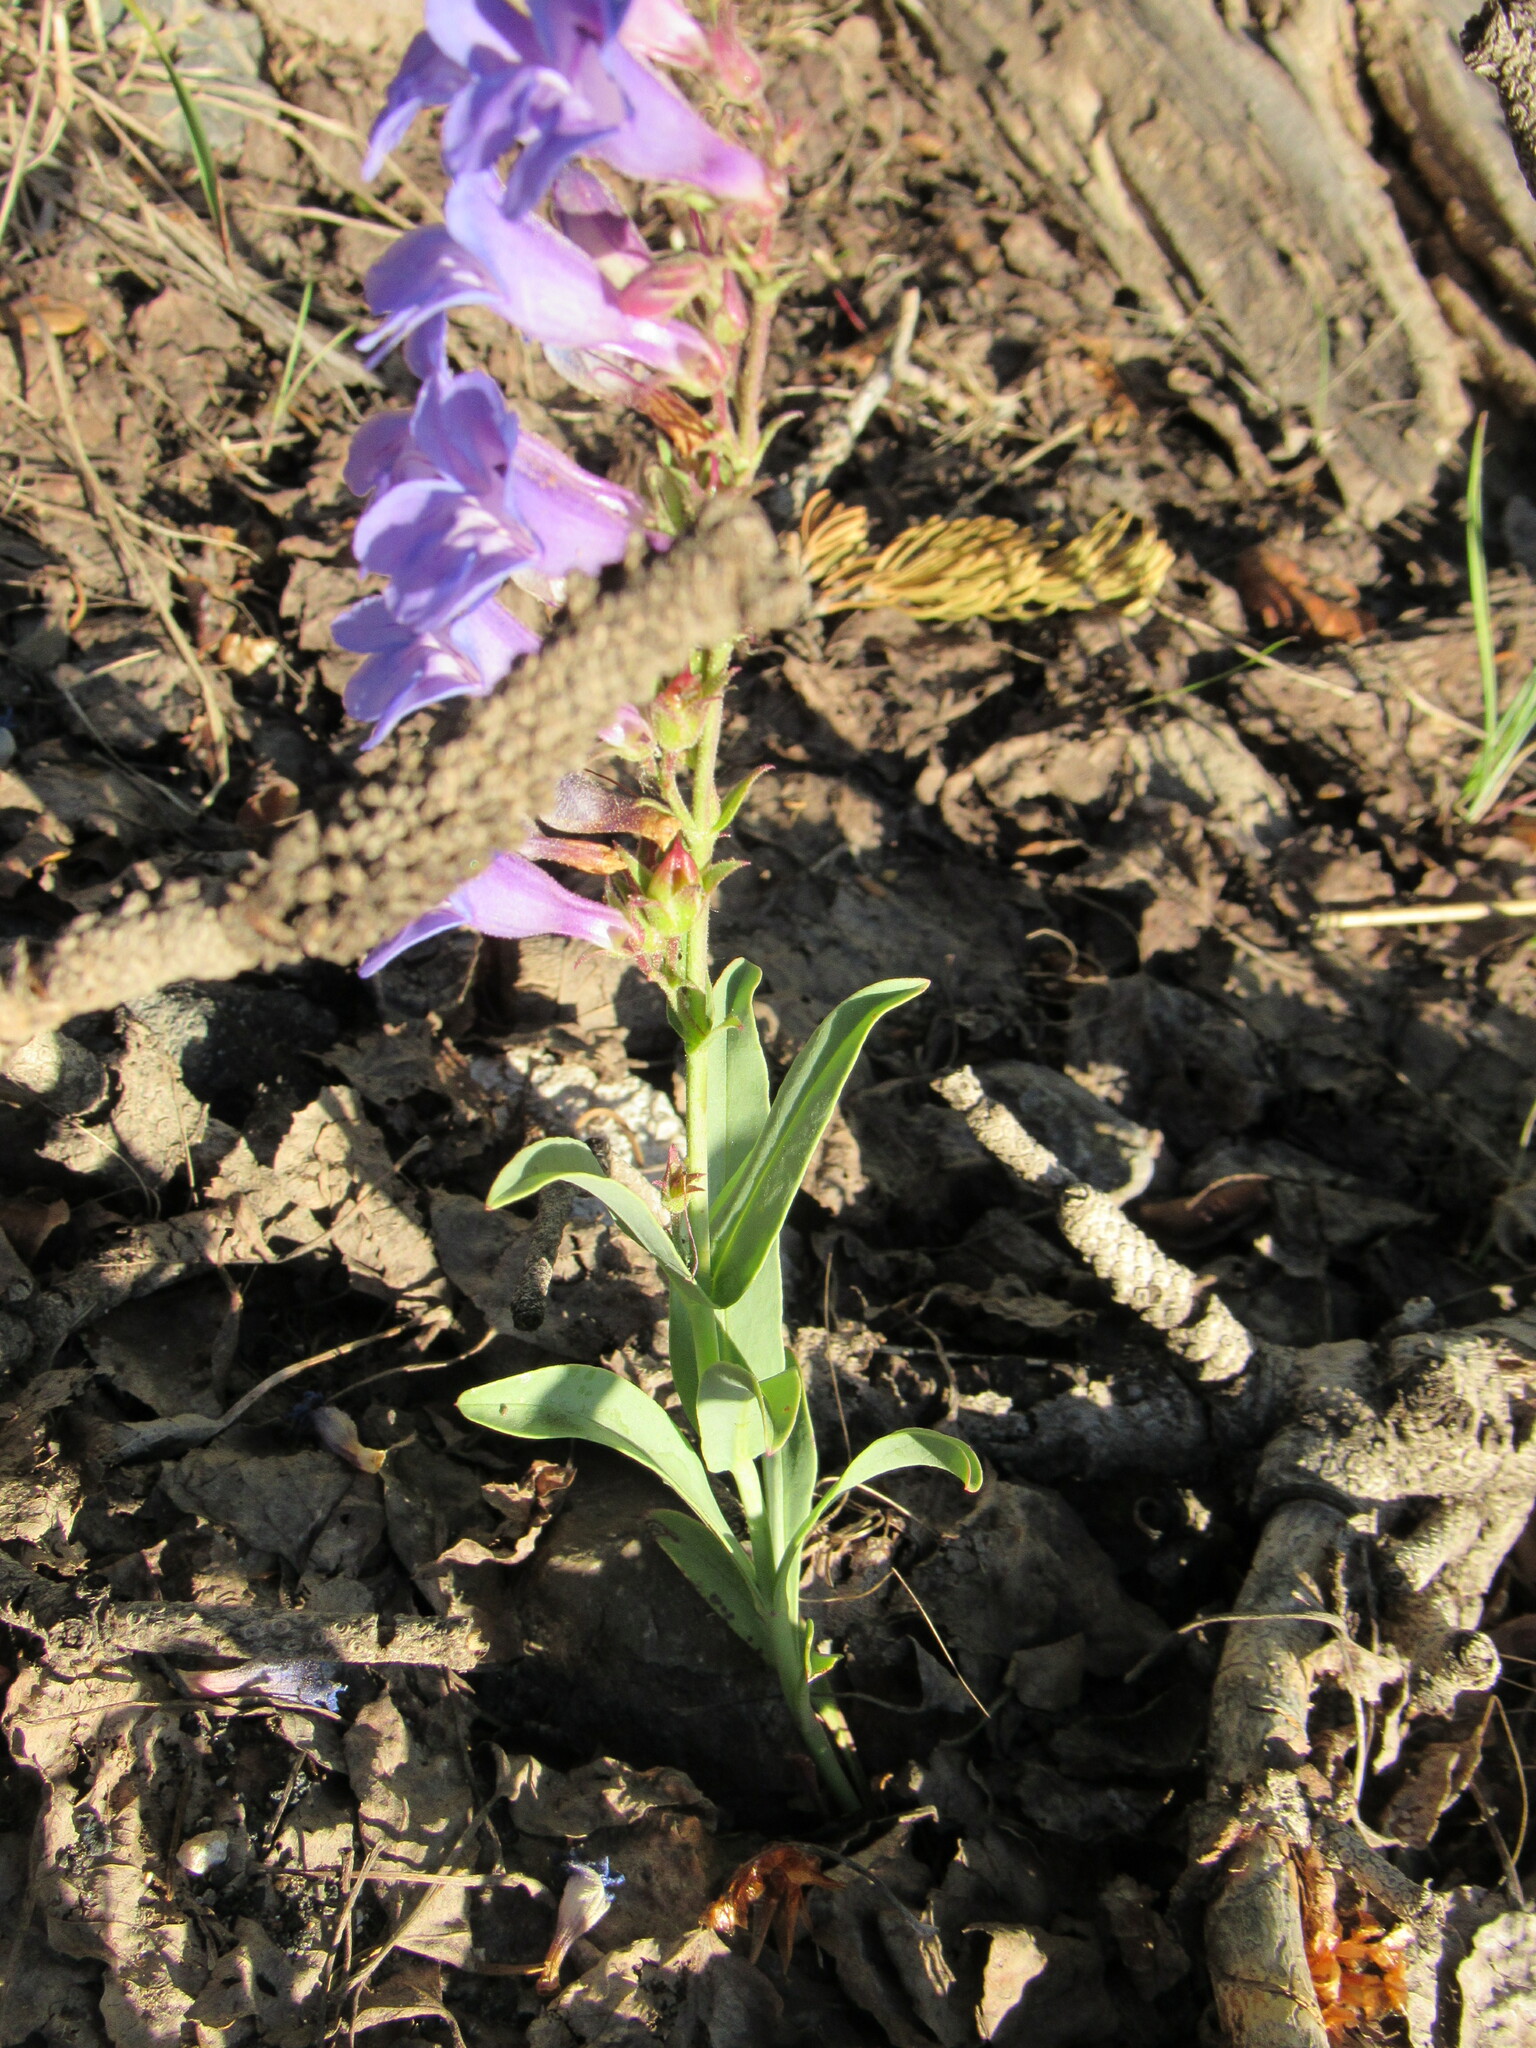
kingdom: Plantae
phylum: Tracheophyta
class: Magnoliopsida
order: Lamiales
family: Plantaginaceae
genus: Penstemon
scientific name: Penstemon leiophyllus
